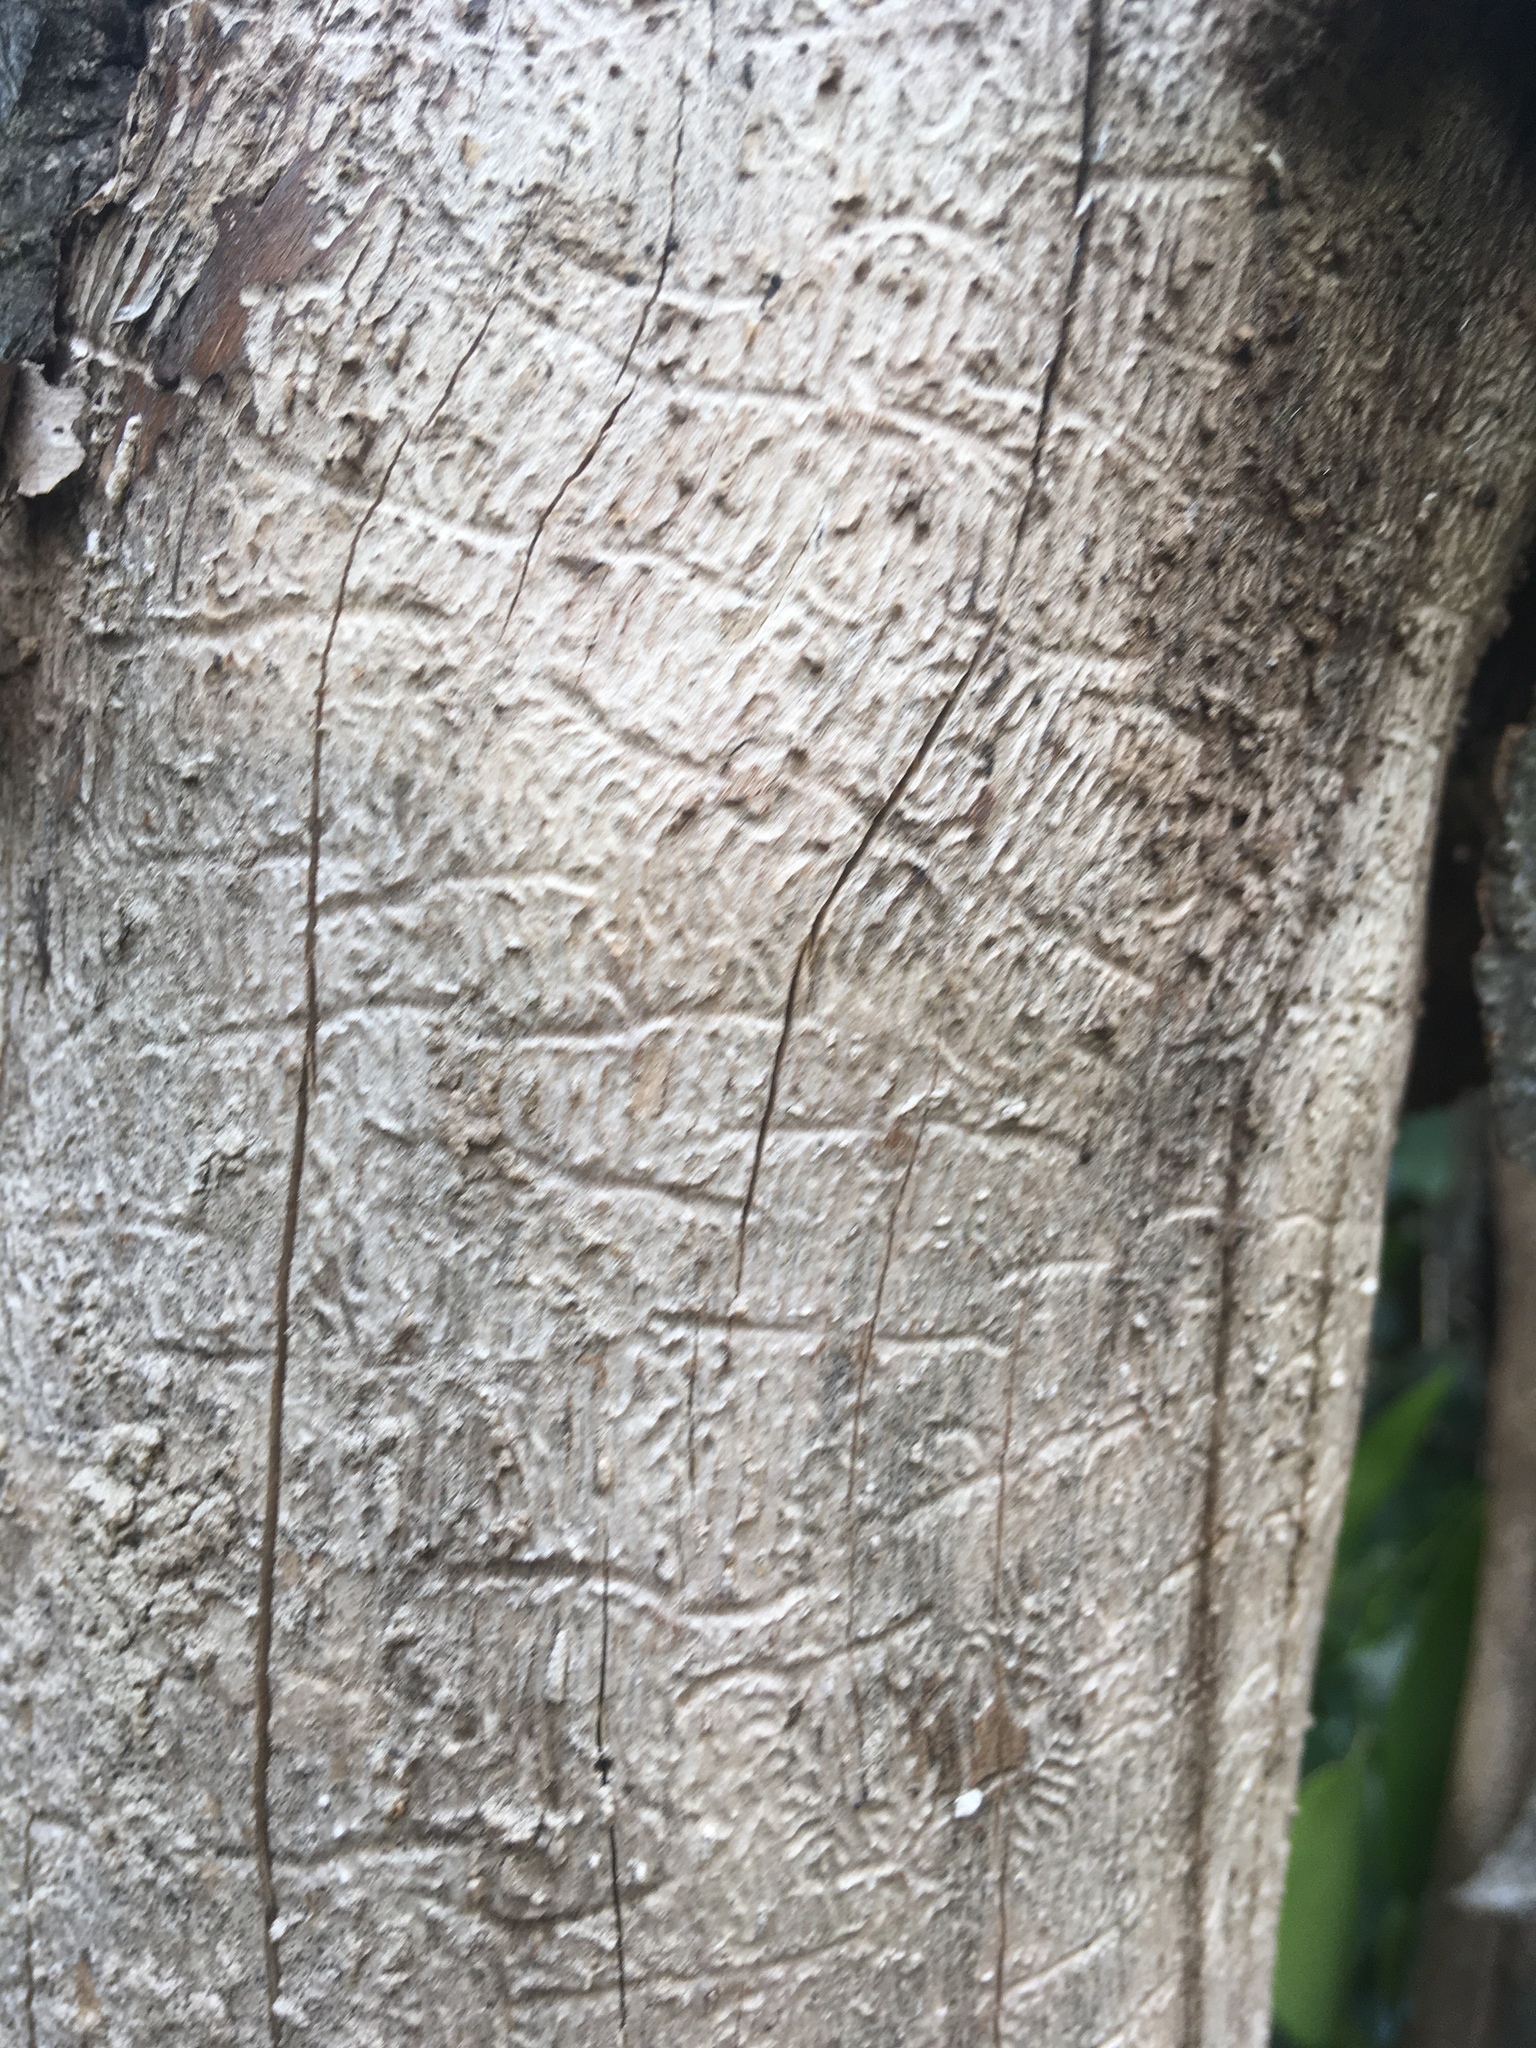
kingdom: Animalia
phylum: Arthropoda
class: Insecta
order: Coleoptera
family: Curculionidae
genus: Chaetoptelius
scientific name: Chaetoptelius mundulus
